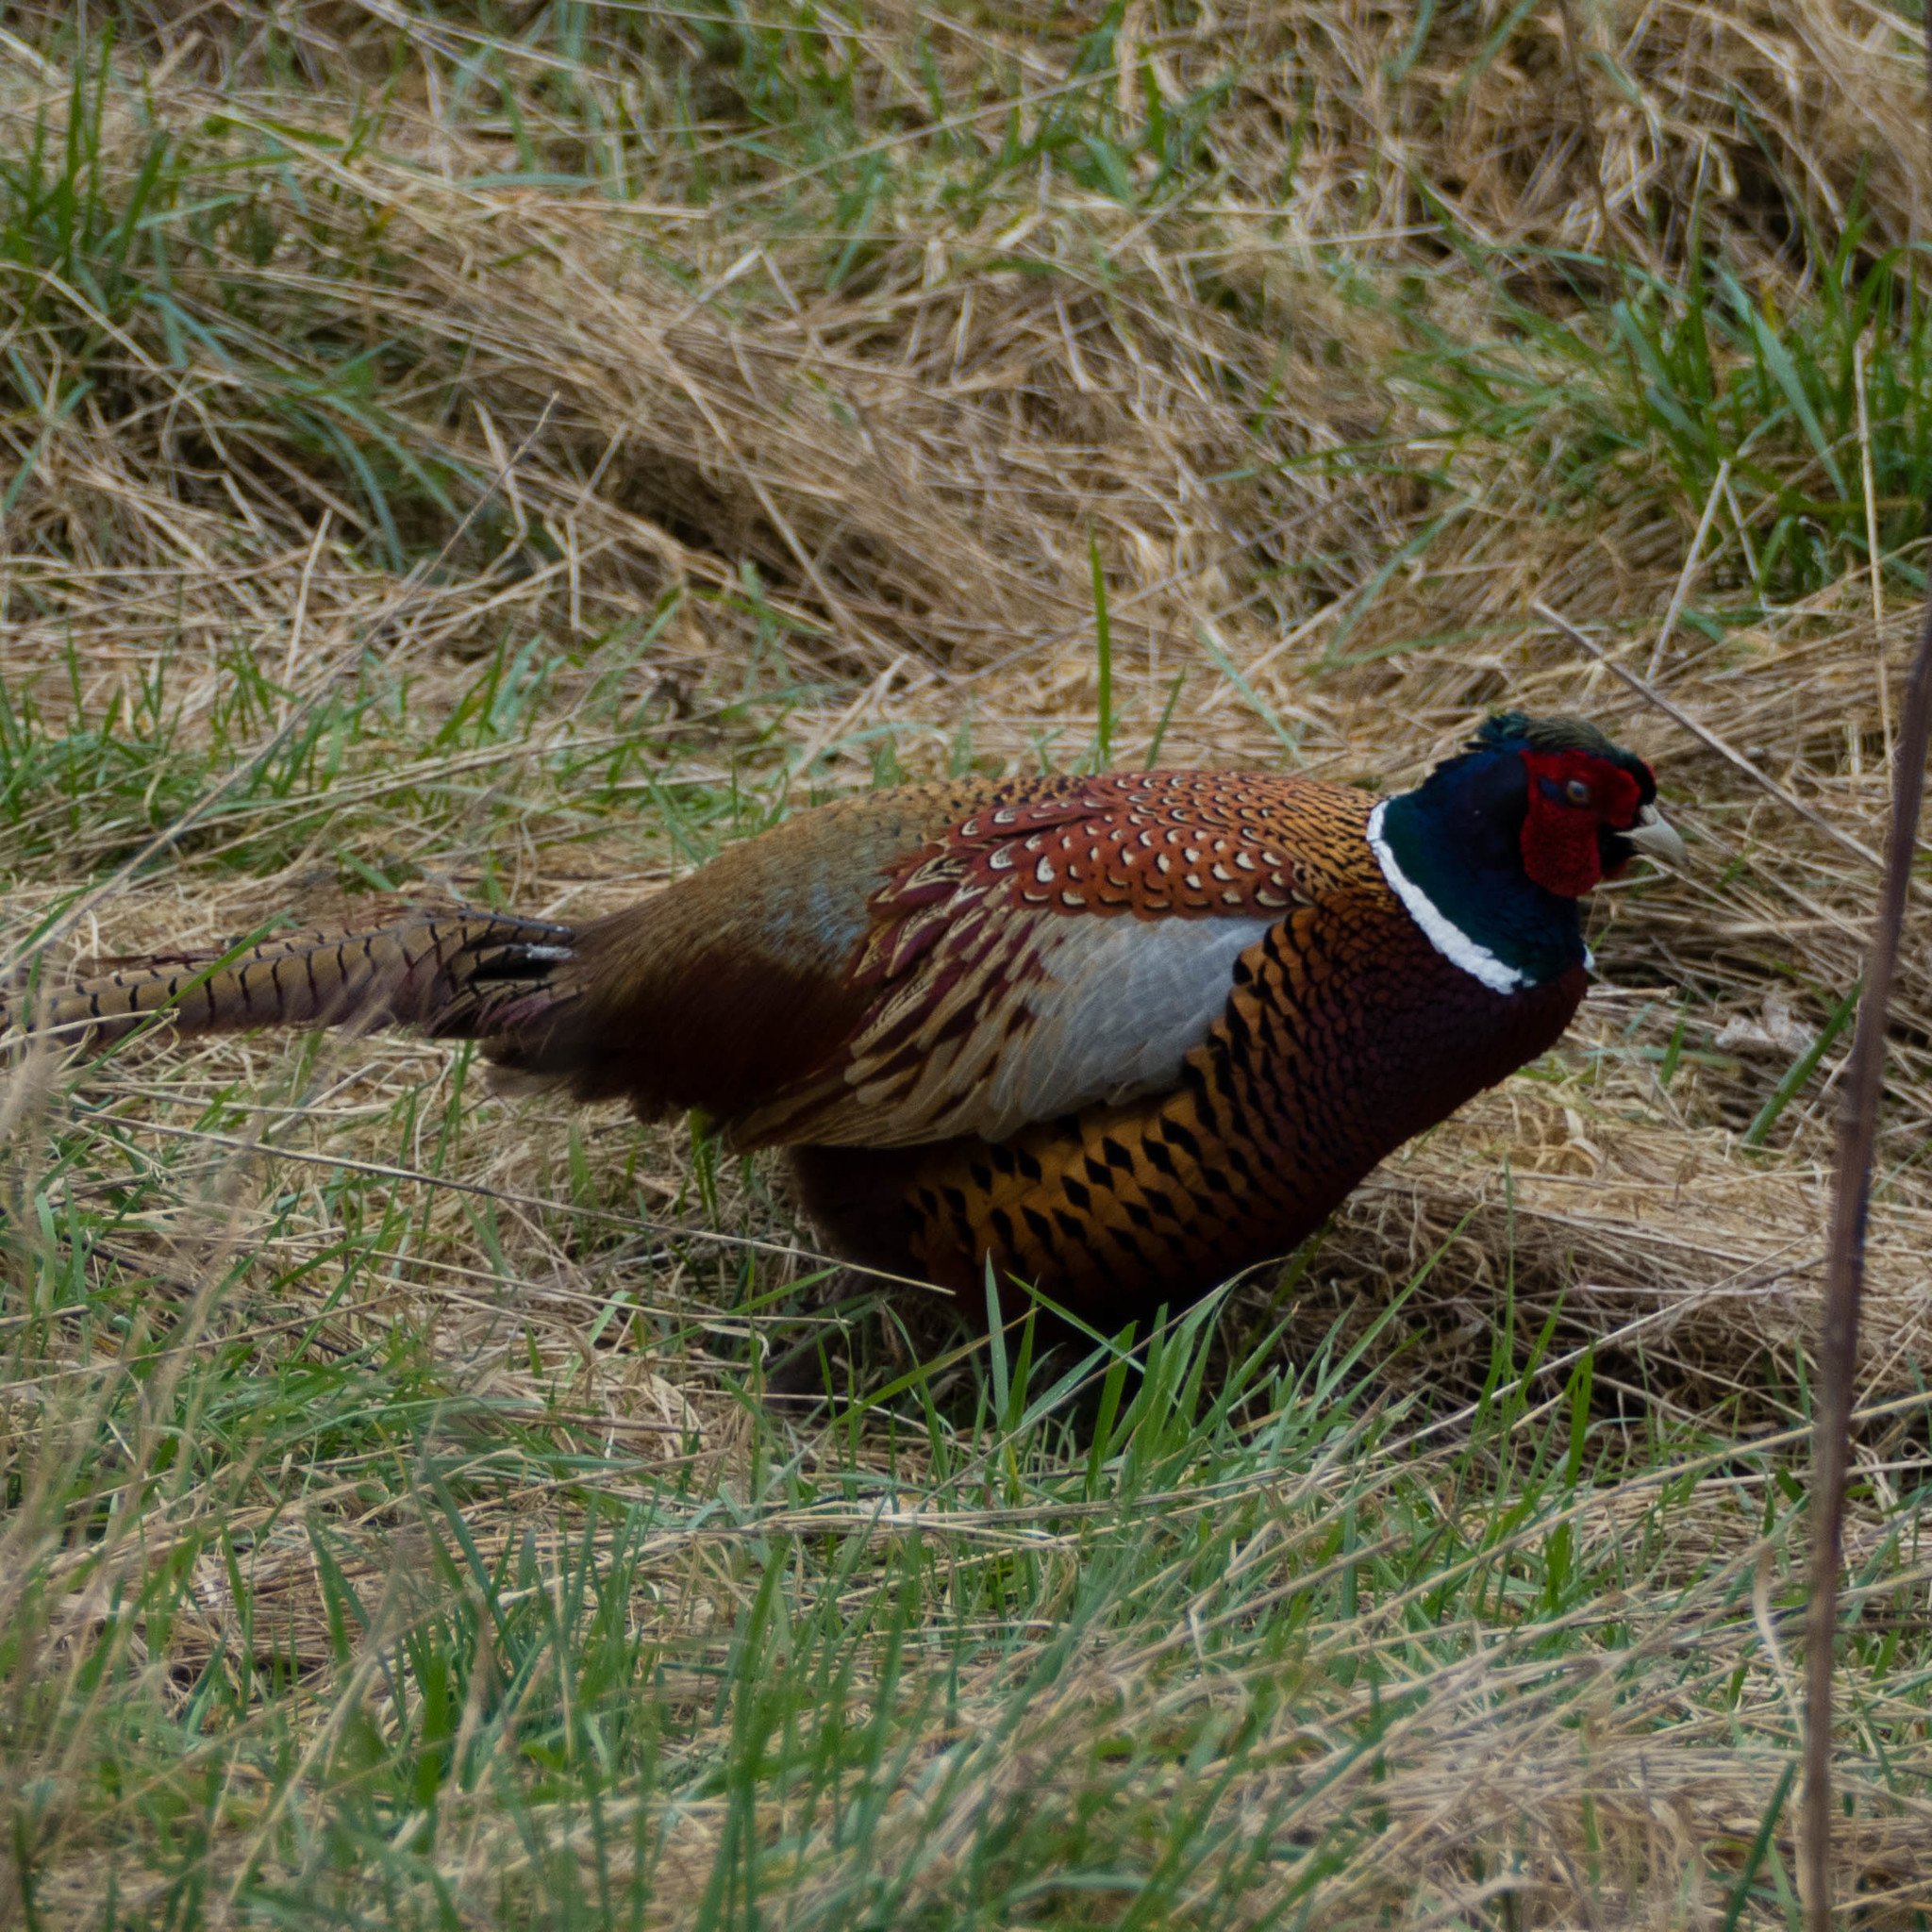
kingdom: Animalia
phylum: Chordata
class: Aves
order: Galliformes
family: Phasianidae
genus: Phasianus
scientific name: Phasianus colchicus
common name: Common pheasant
